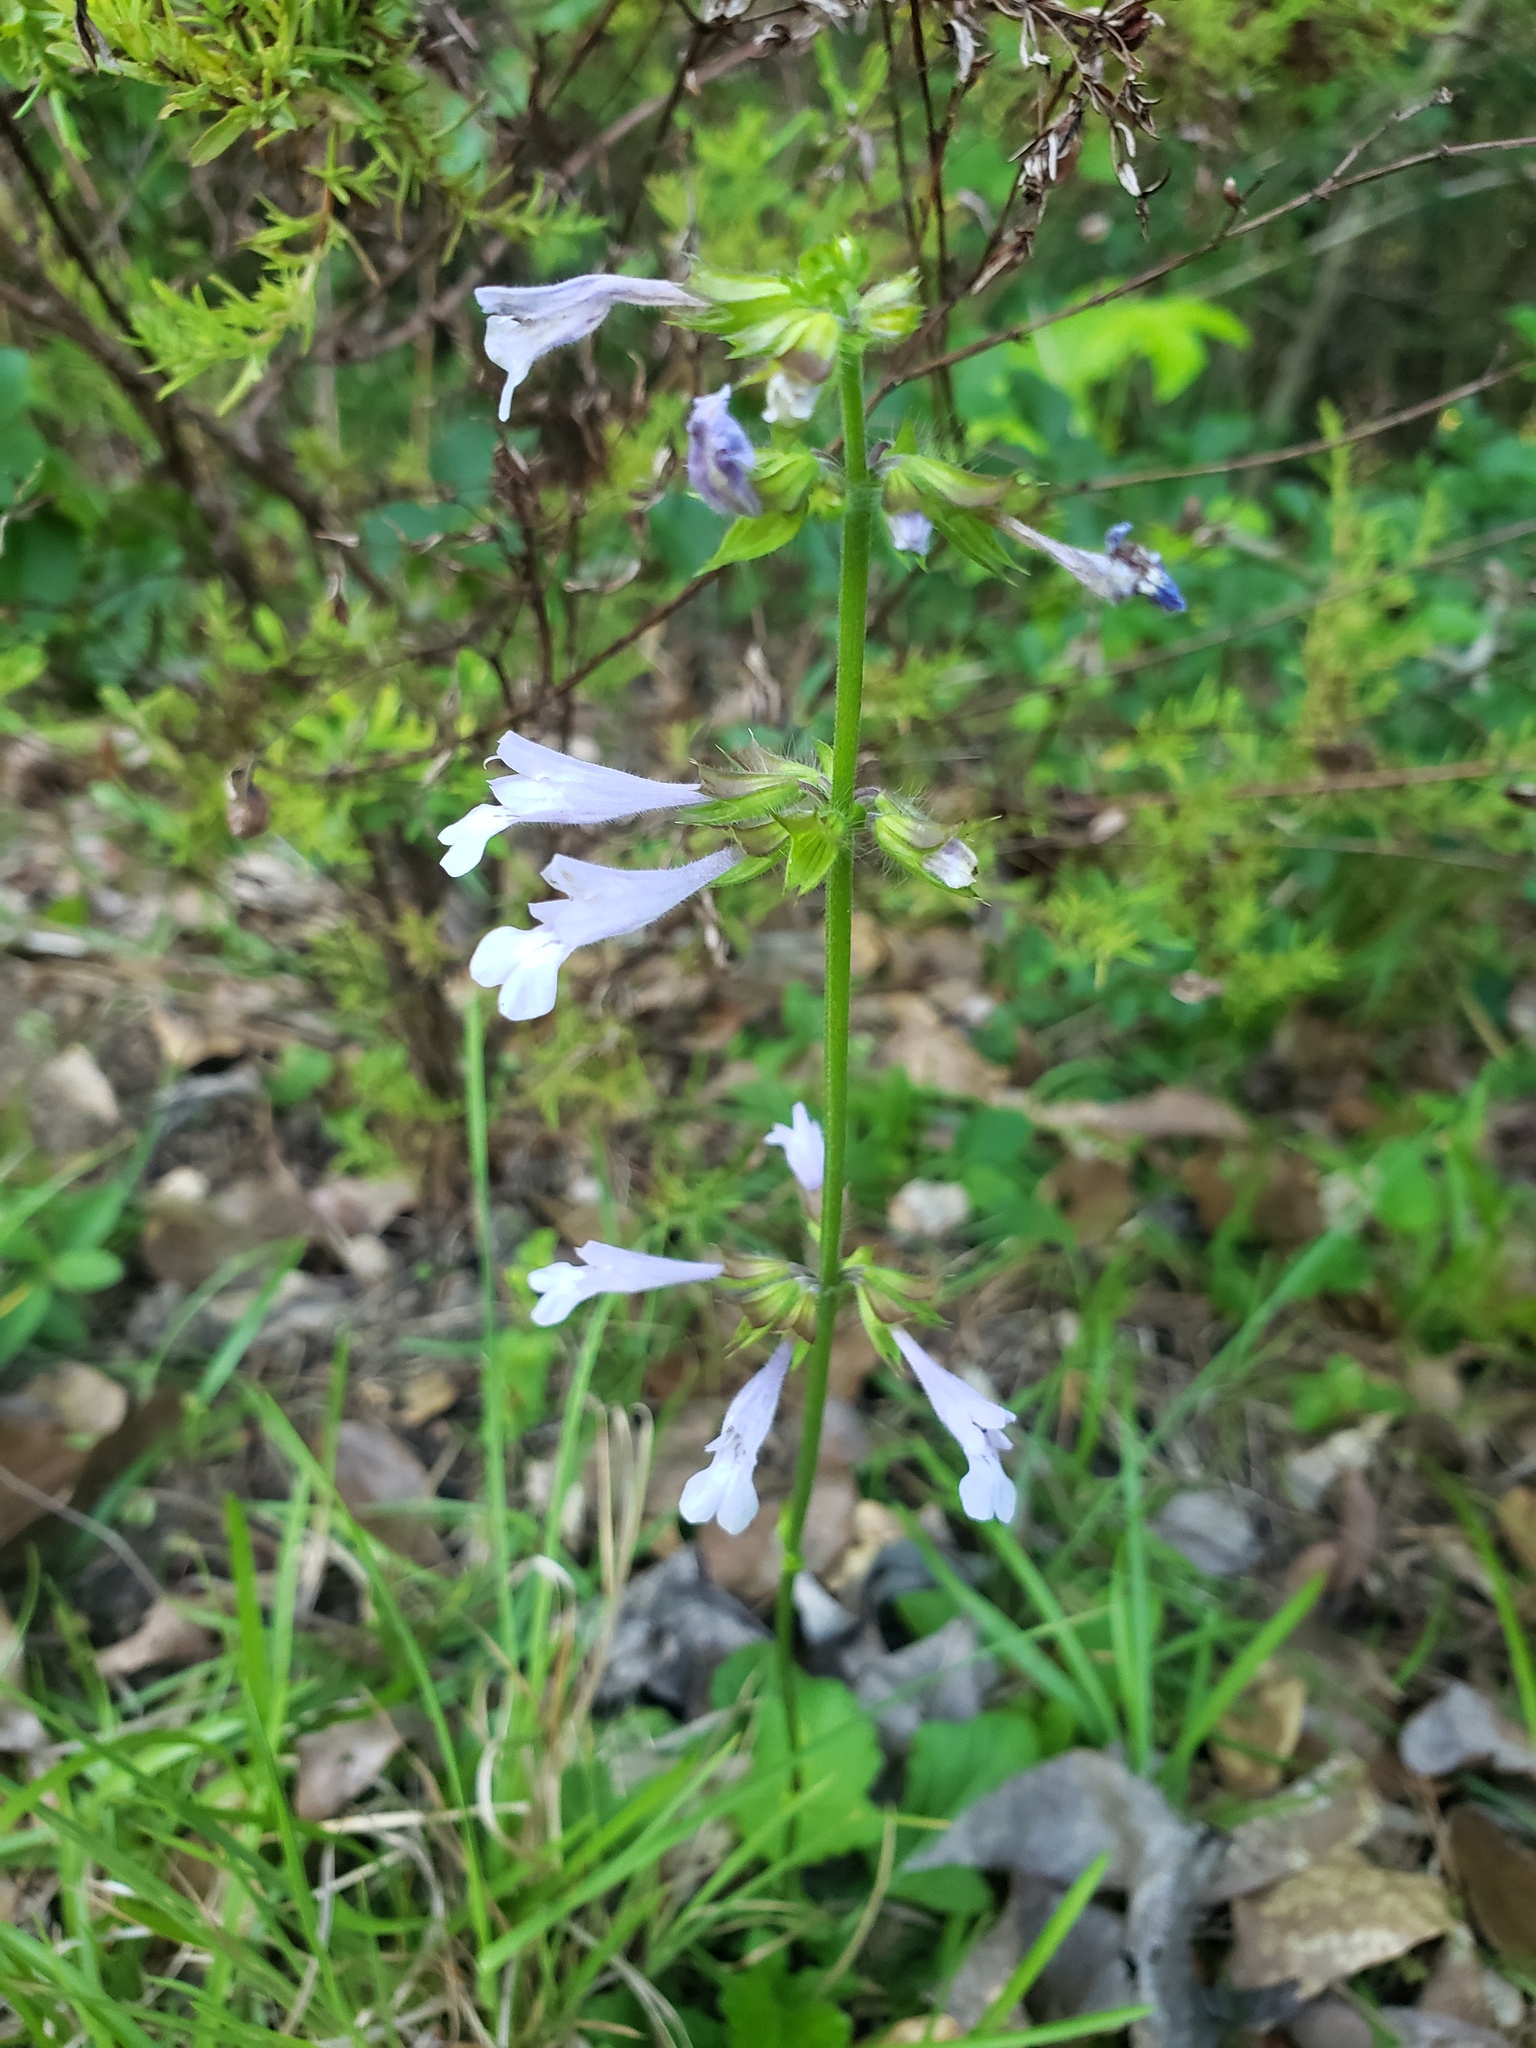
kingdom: Plantae
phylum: Tracheophyta
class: Magnoliopsida
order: Lamiales
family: Lamiaceae
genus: Salvia
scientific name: Salvia lyrata
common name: Cancerweed
